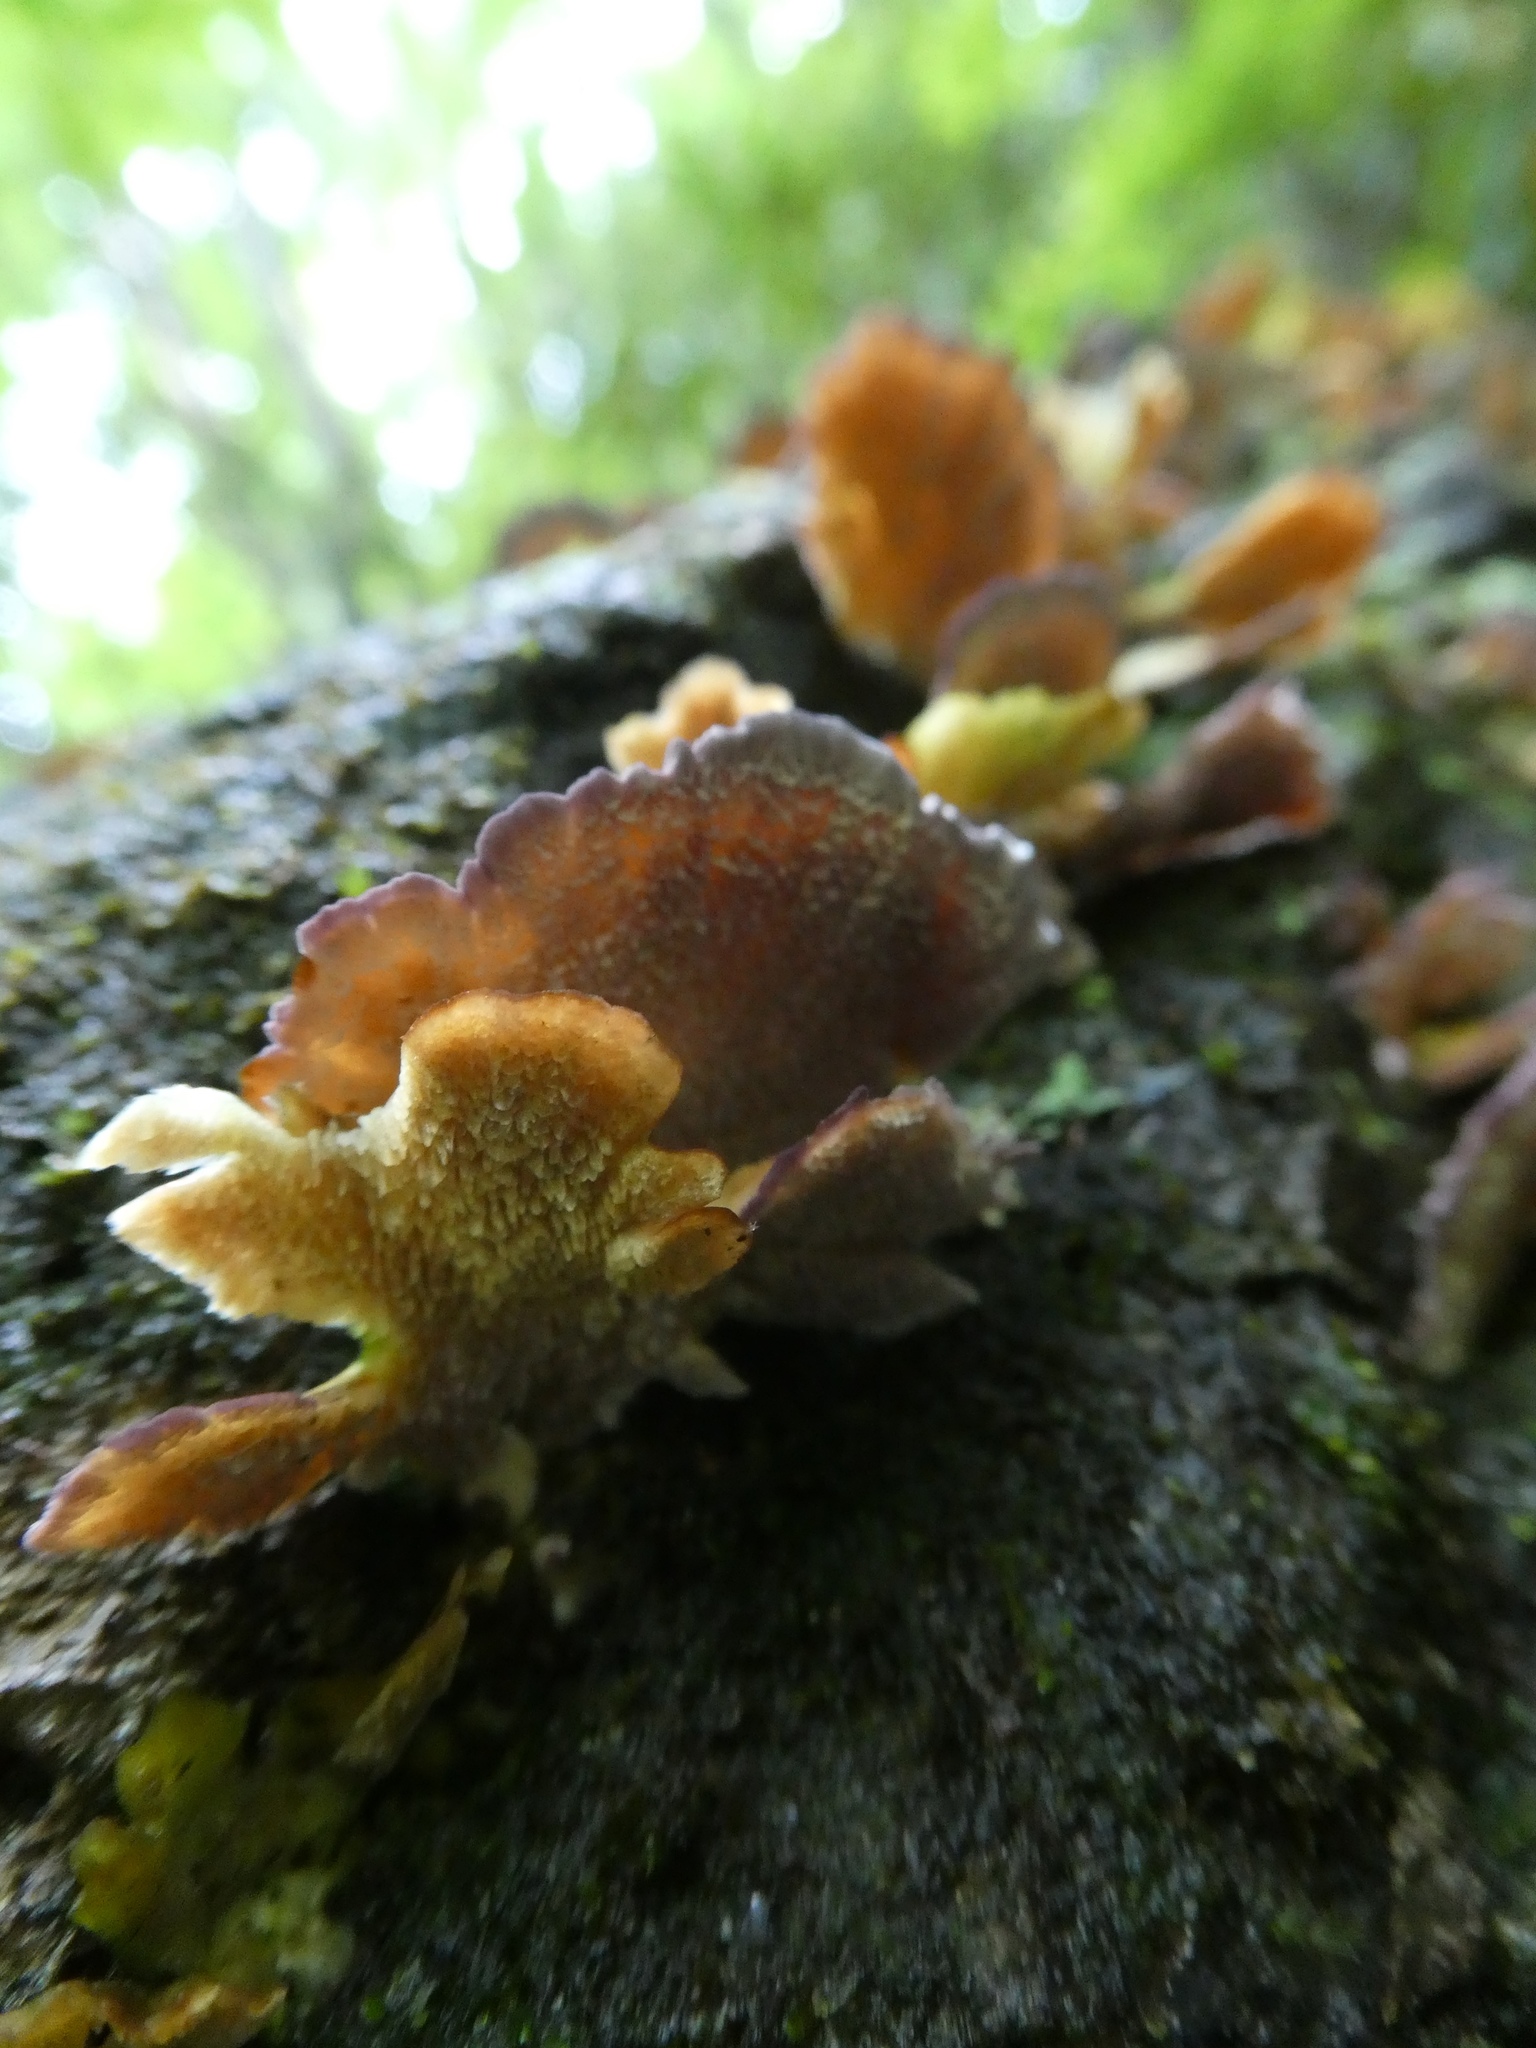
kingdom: Fungi
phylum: Basidiomycota
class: Agaricomycetes
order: Hymenochaetales
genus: Trichaptum
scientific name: Trichaptum biforme
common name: Violet-toothed polypore
